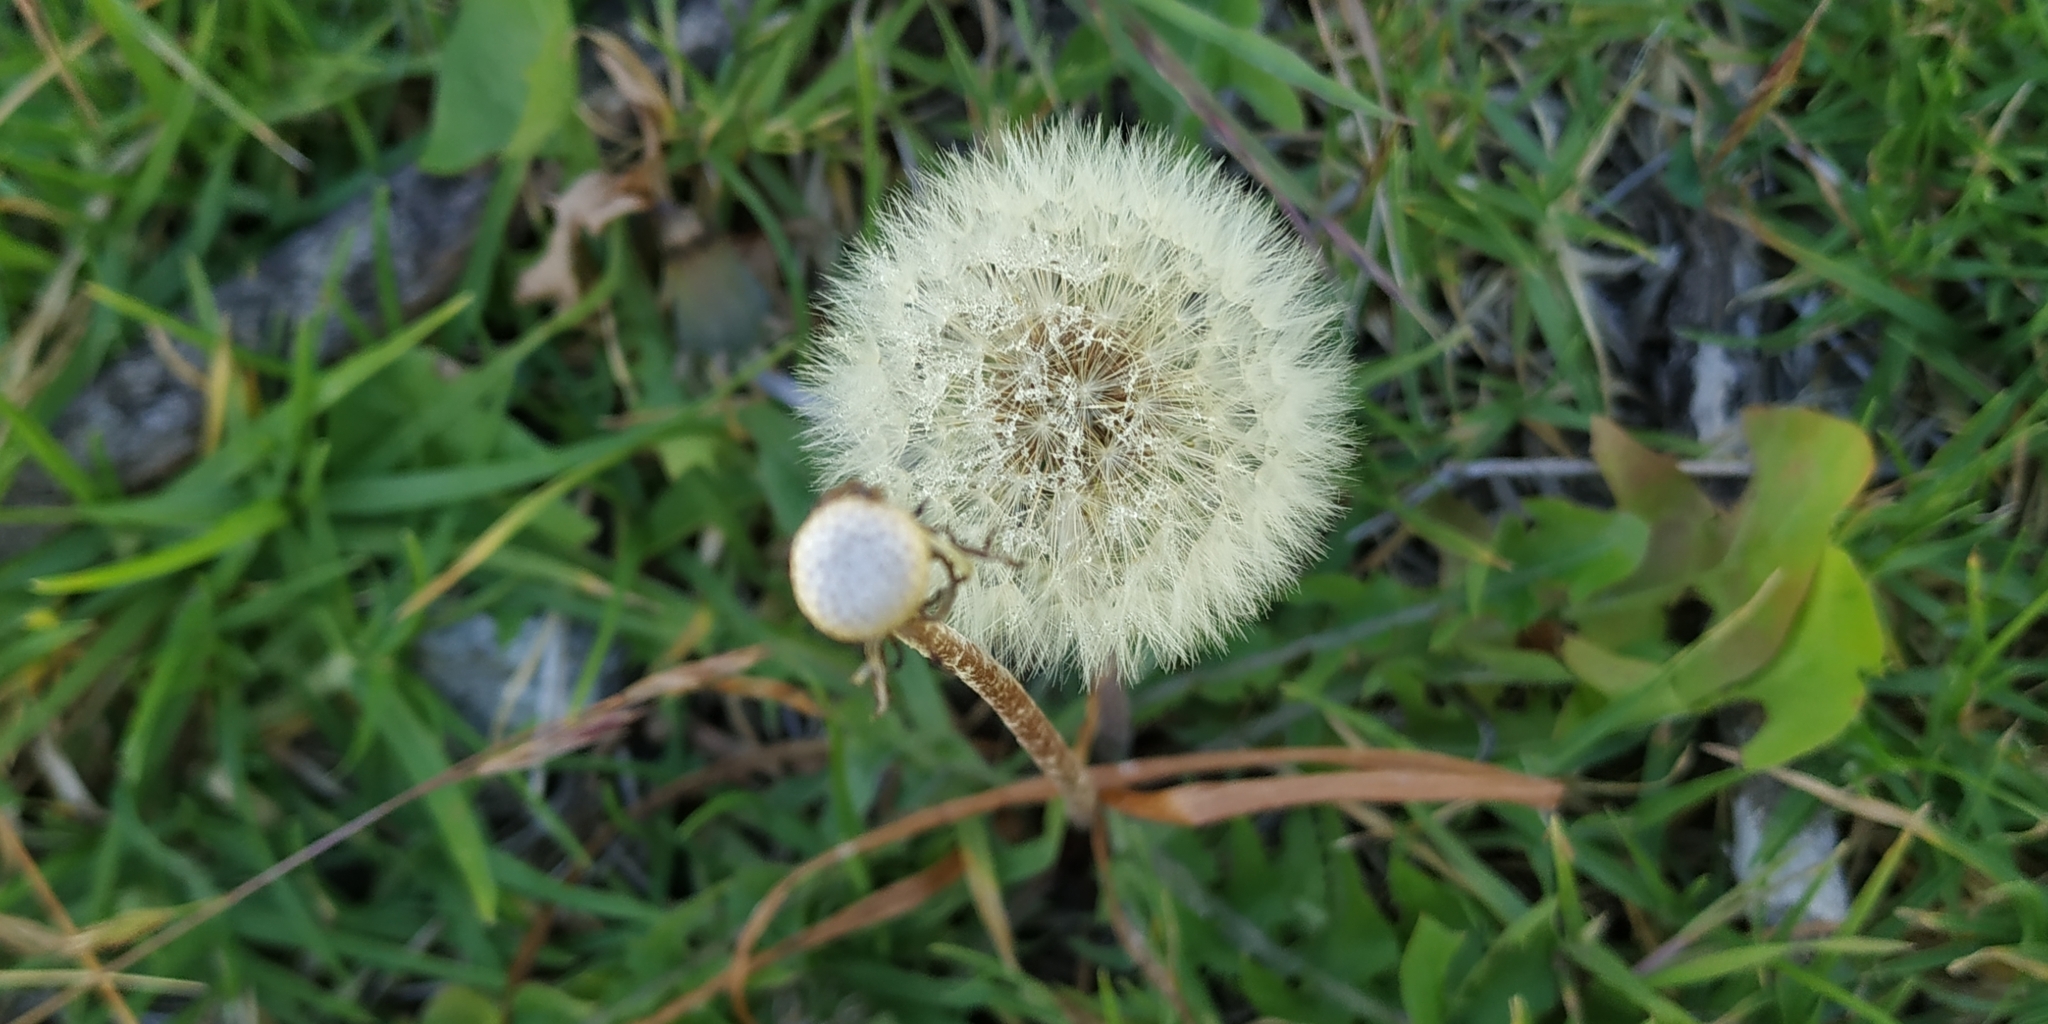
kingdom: Plantae
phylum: Tracheophyta
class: Magnoliopsida
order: Asterales
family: Asteraceae
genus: Taraxacum
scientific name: Taraxacum officinale
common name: Common dandelion
